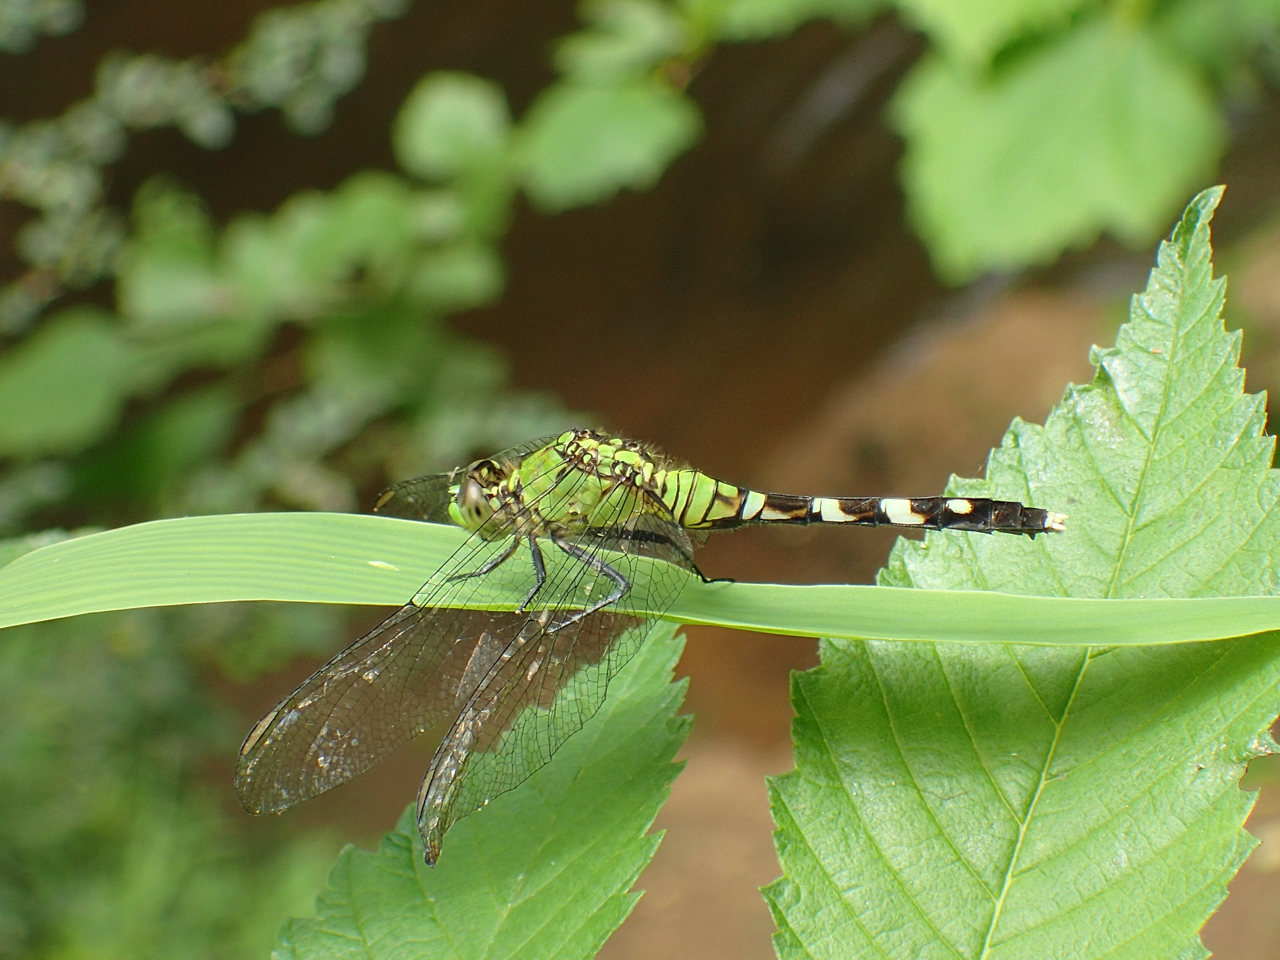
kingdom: Animalia
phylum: Arthropoda
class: Insecta
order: Odonata
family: Libellulidae
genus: Erythemis
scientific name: Erythemis simplicicollis
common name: Eastern pondhawk
